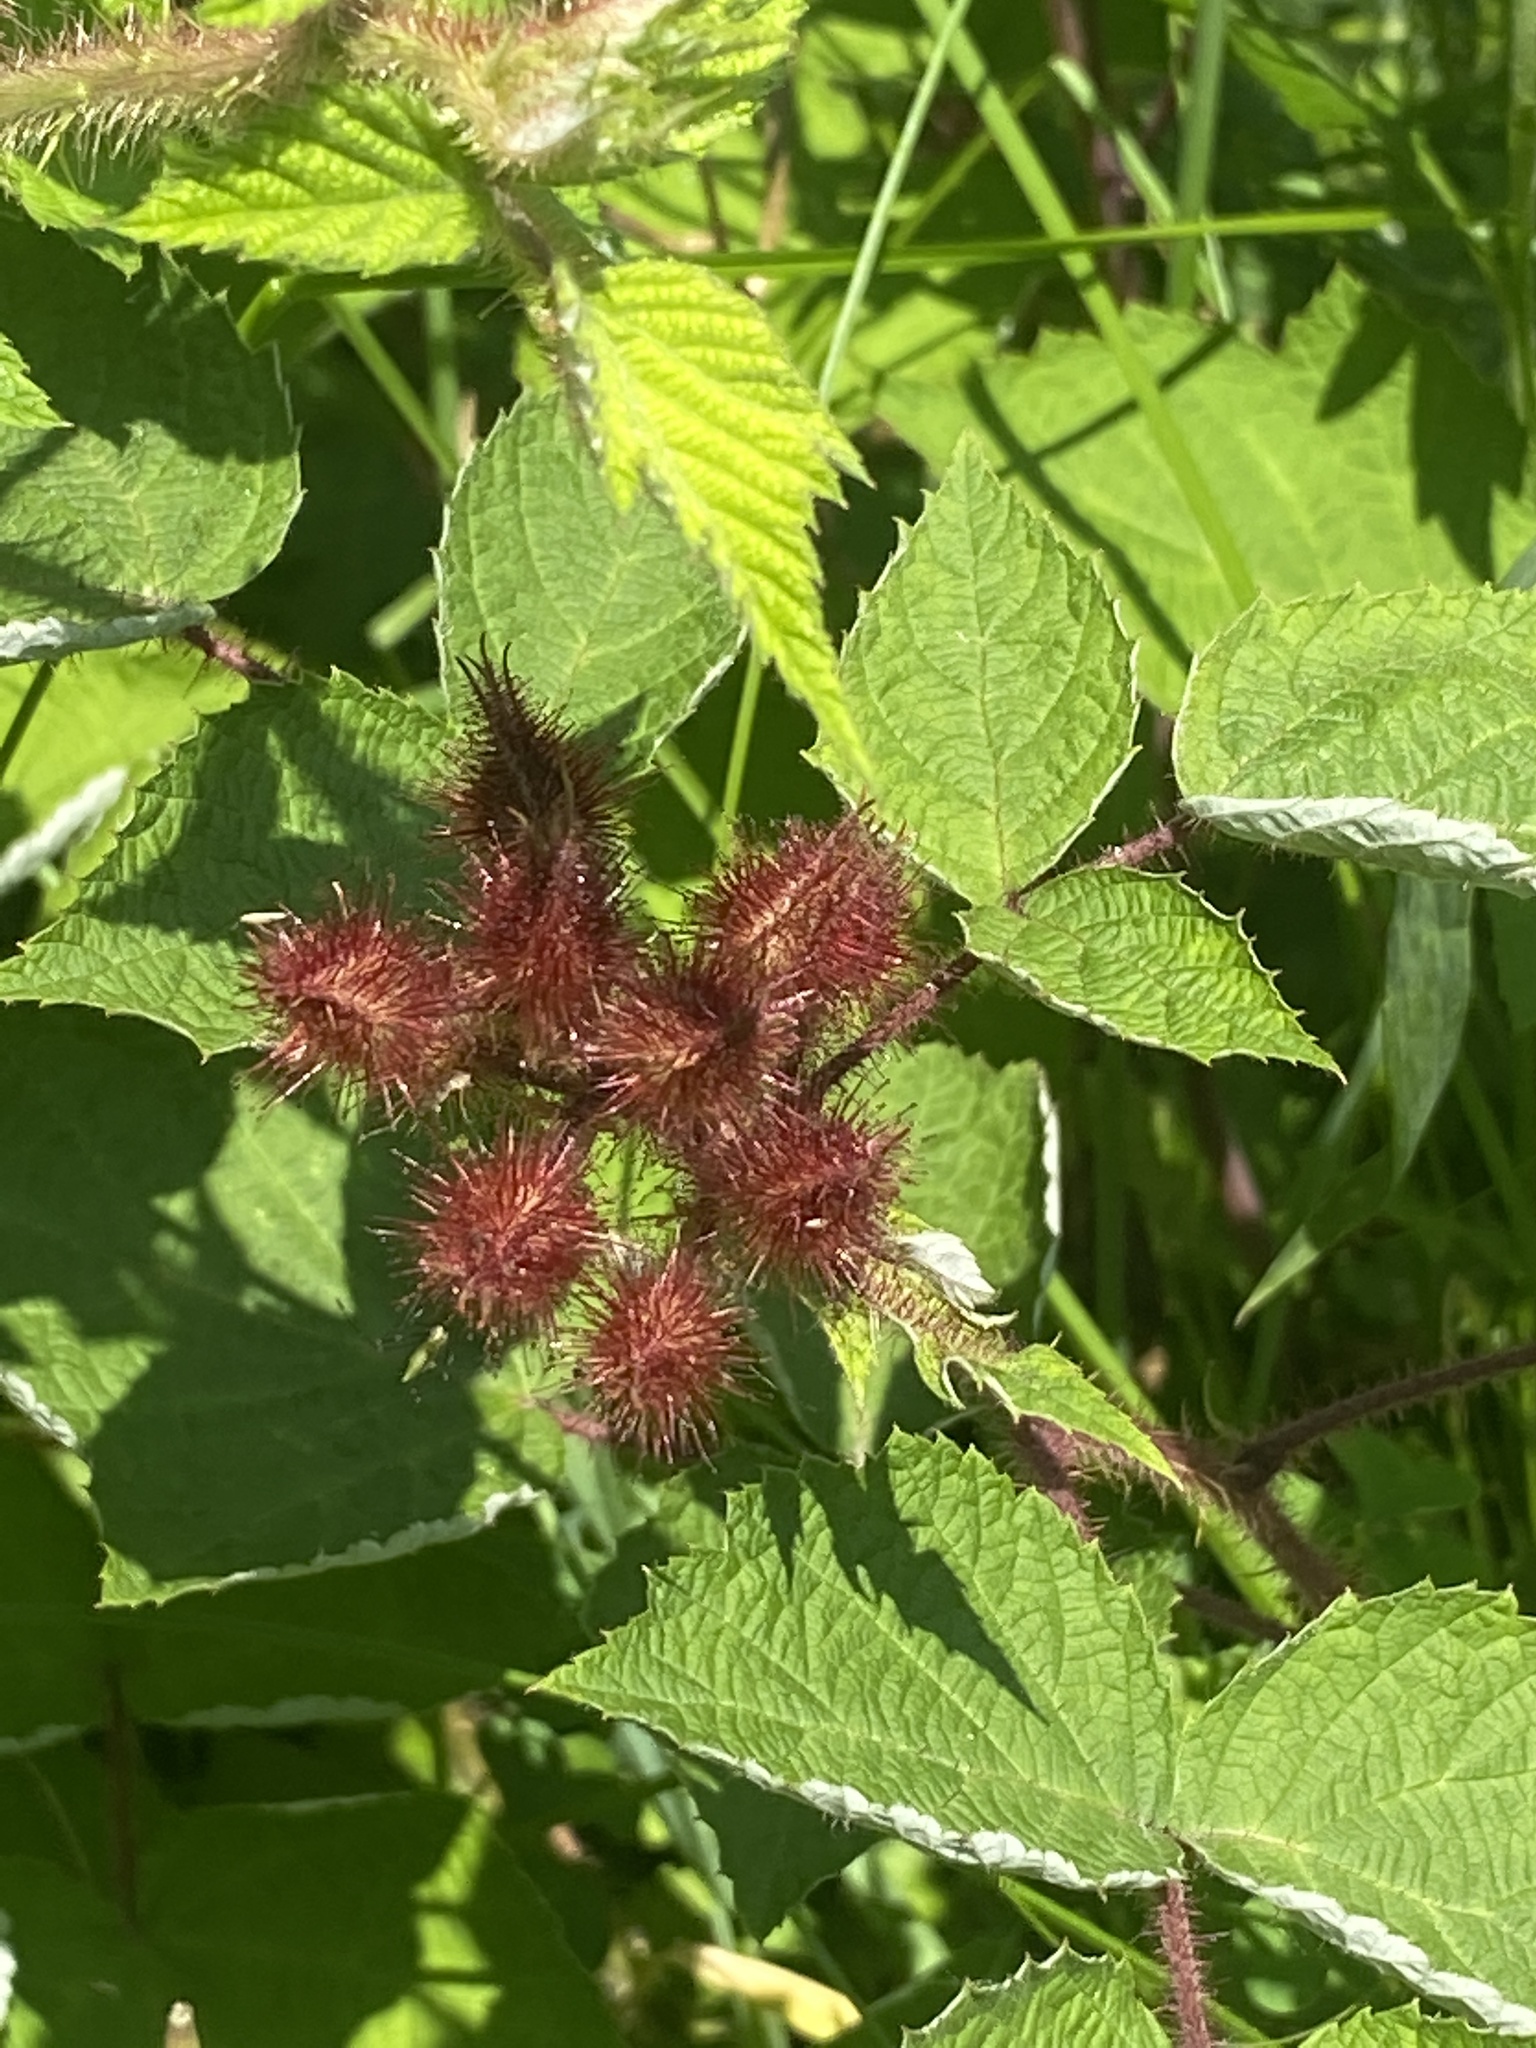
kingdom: Plantae
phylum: Tracheophyta
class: Magnoliopsida
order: Rosales
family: Rosaceae
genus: Rubus
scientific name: Rubus phoenicolasius
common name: Japanese wineberry
